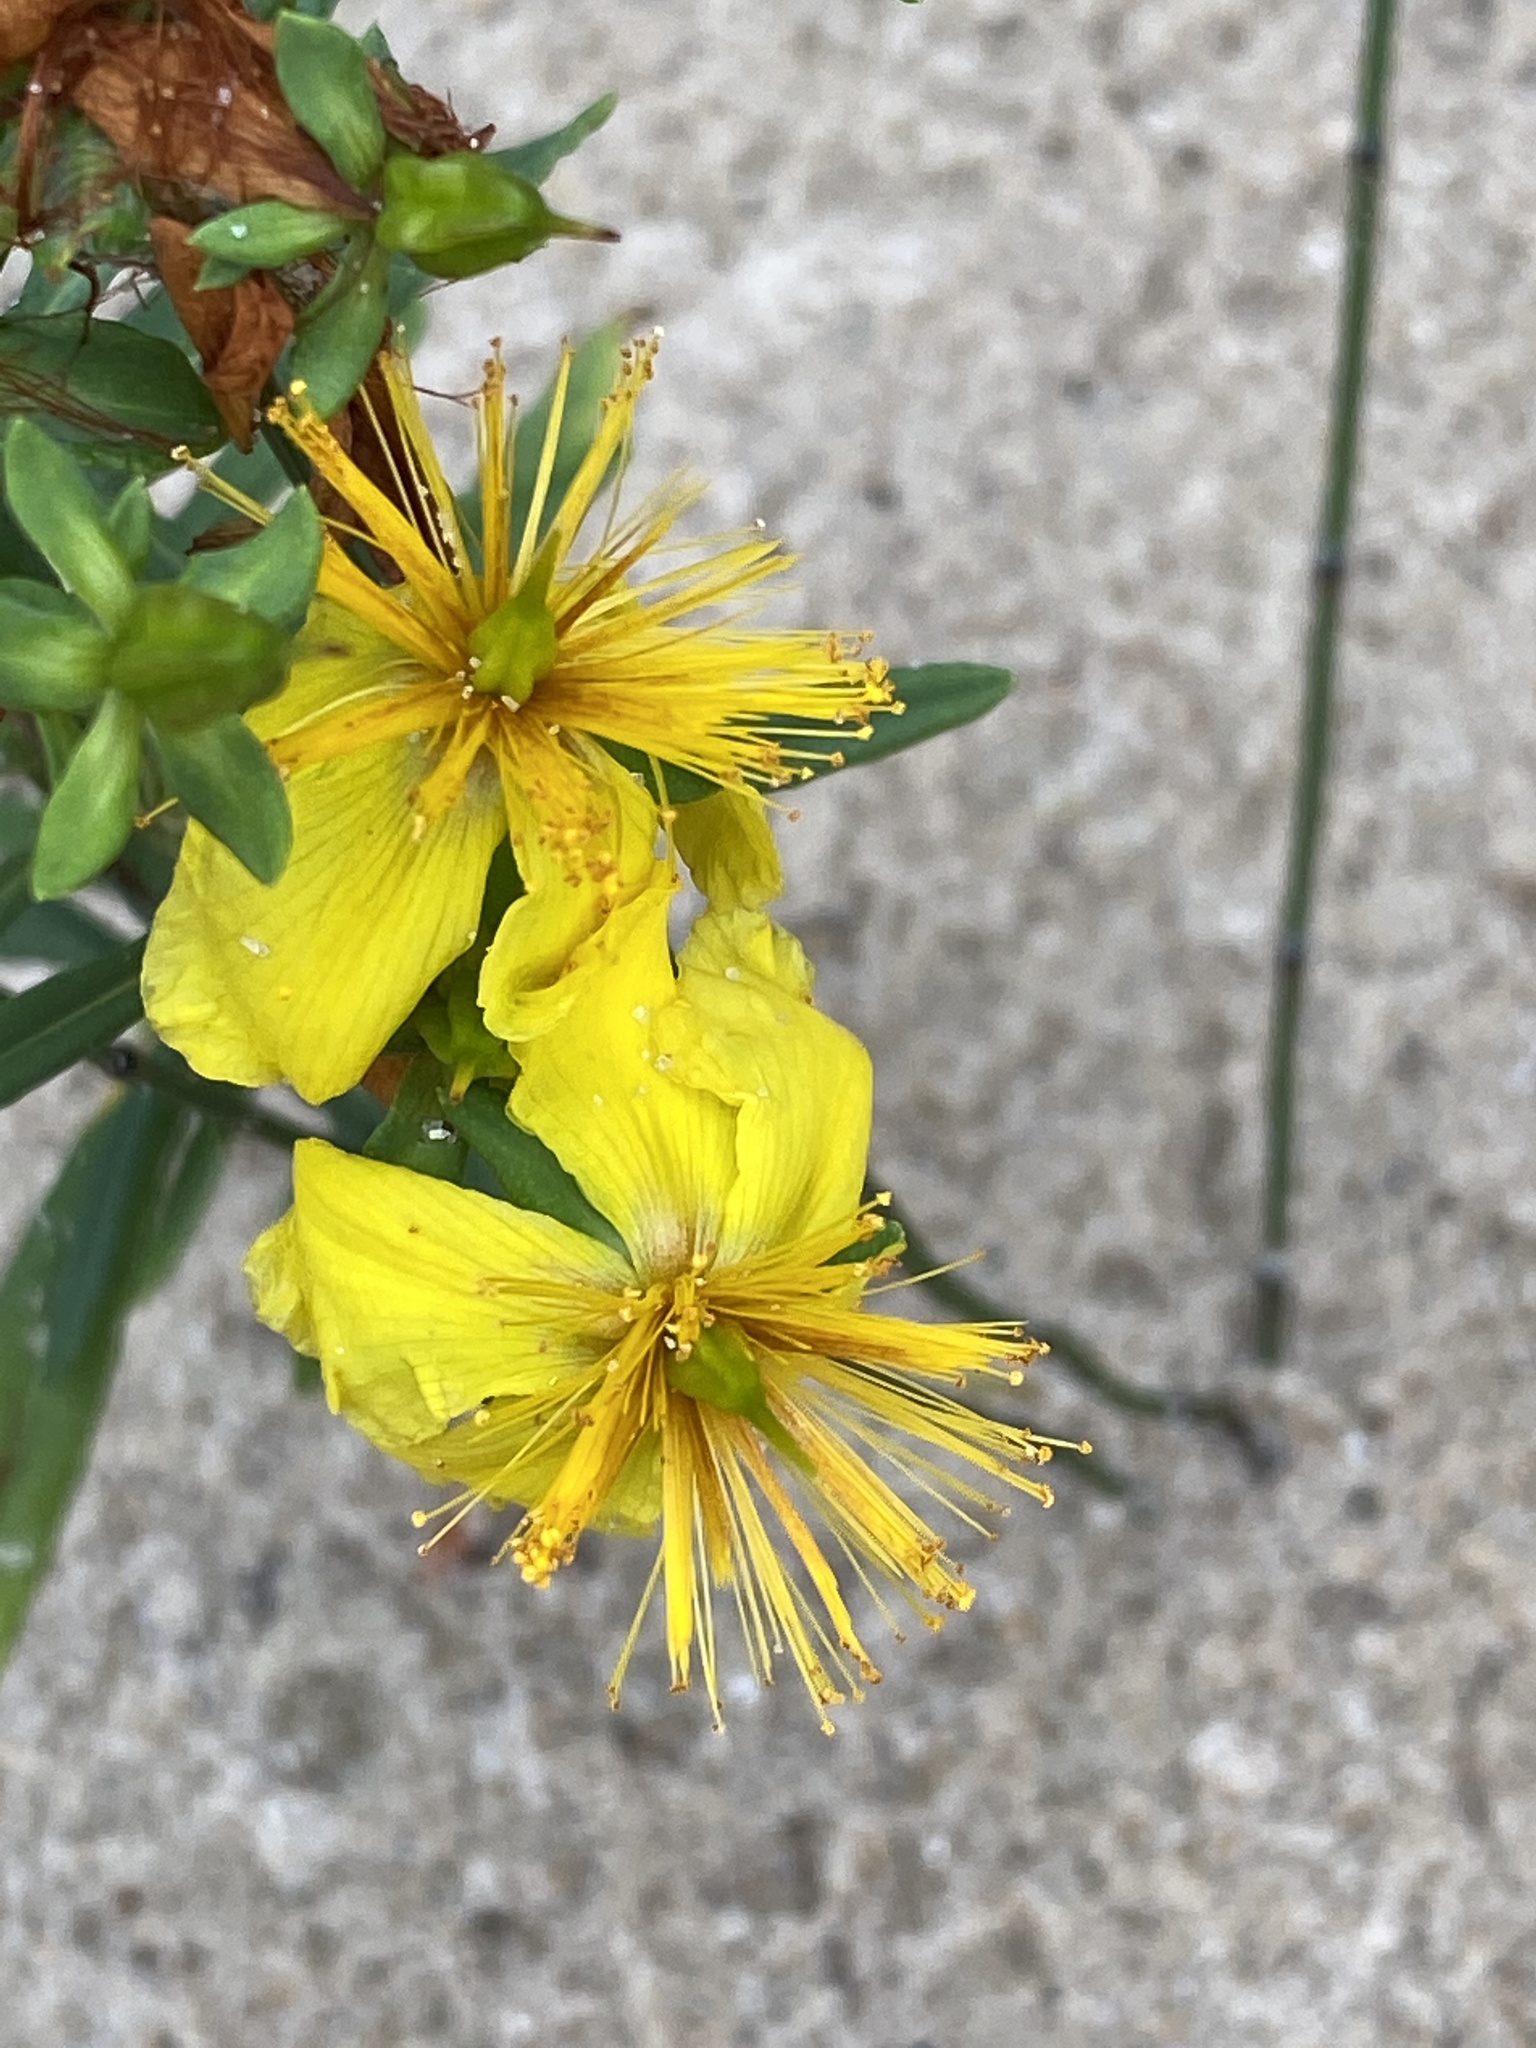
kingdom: Plantae
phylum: Tracheophyta
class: Magnoliopsida
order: Malpighiales
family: Hypericaceae
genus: Hypericum
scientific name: Hypericum kalmianum
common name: Kalm's st. john's-wort
